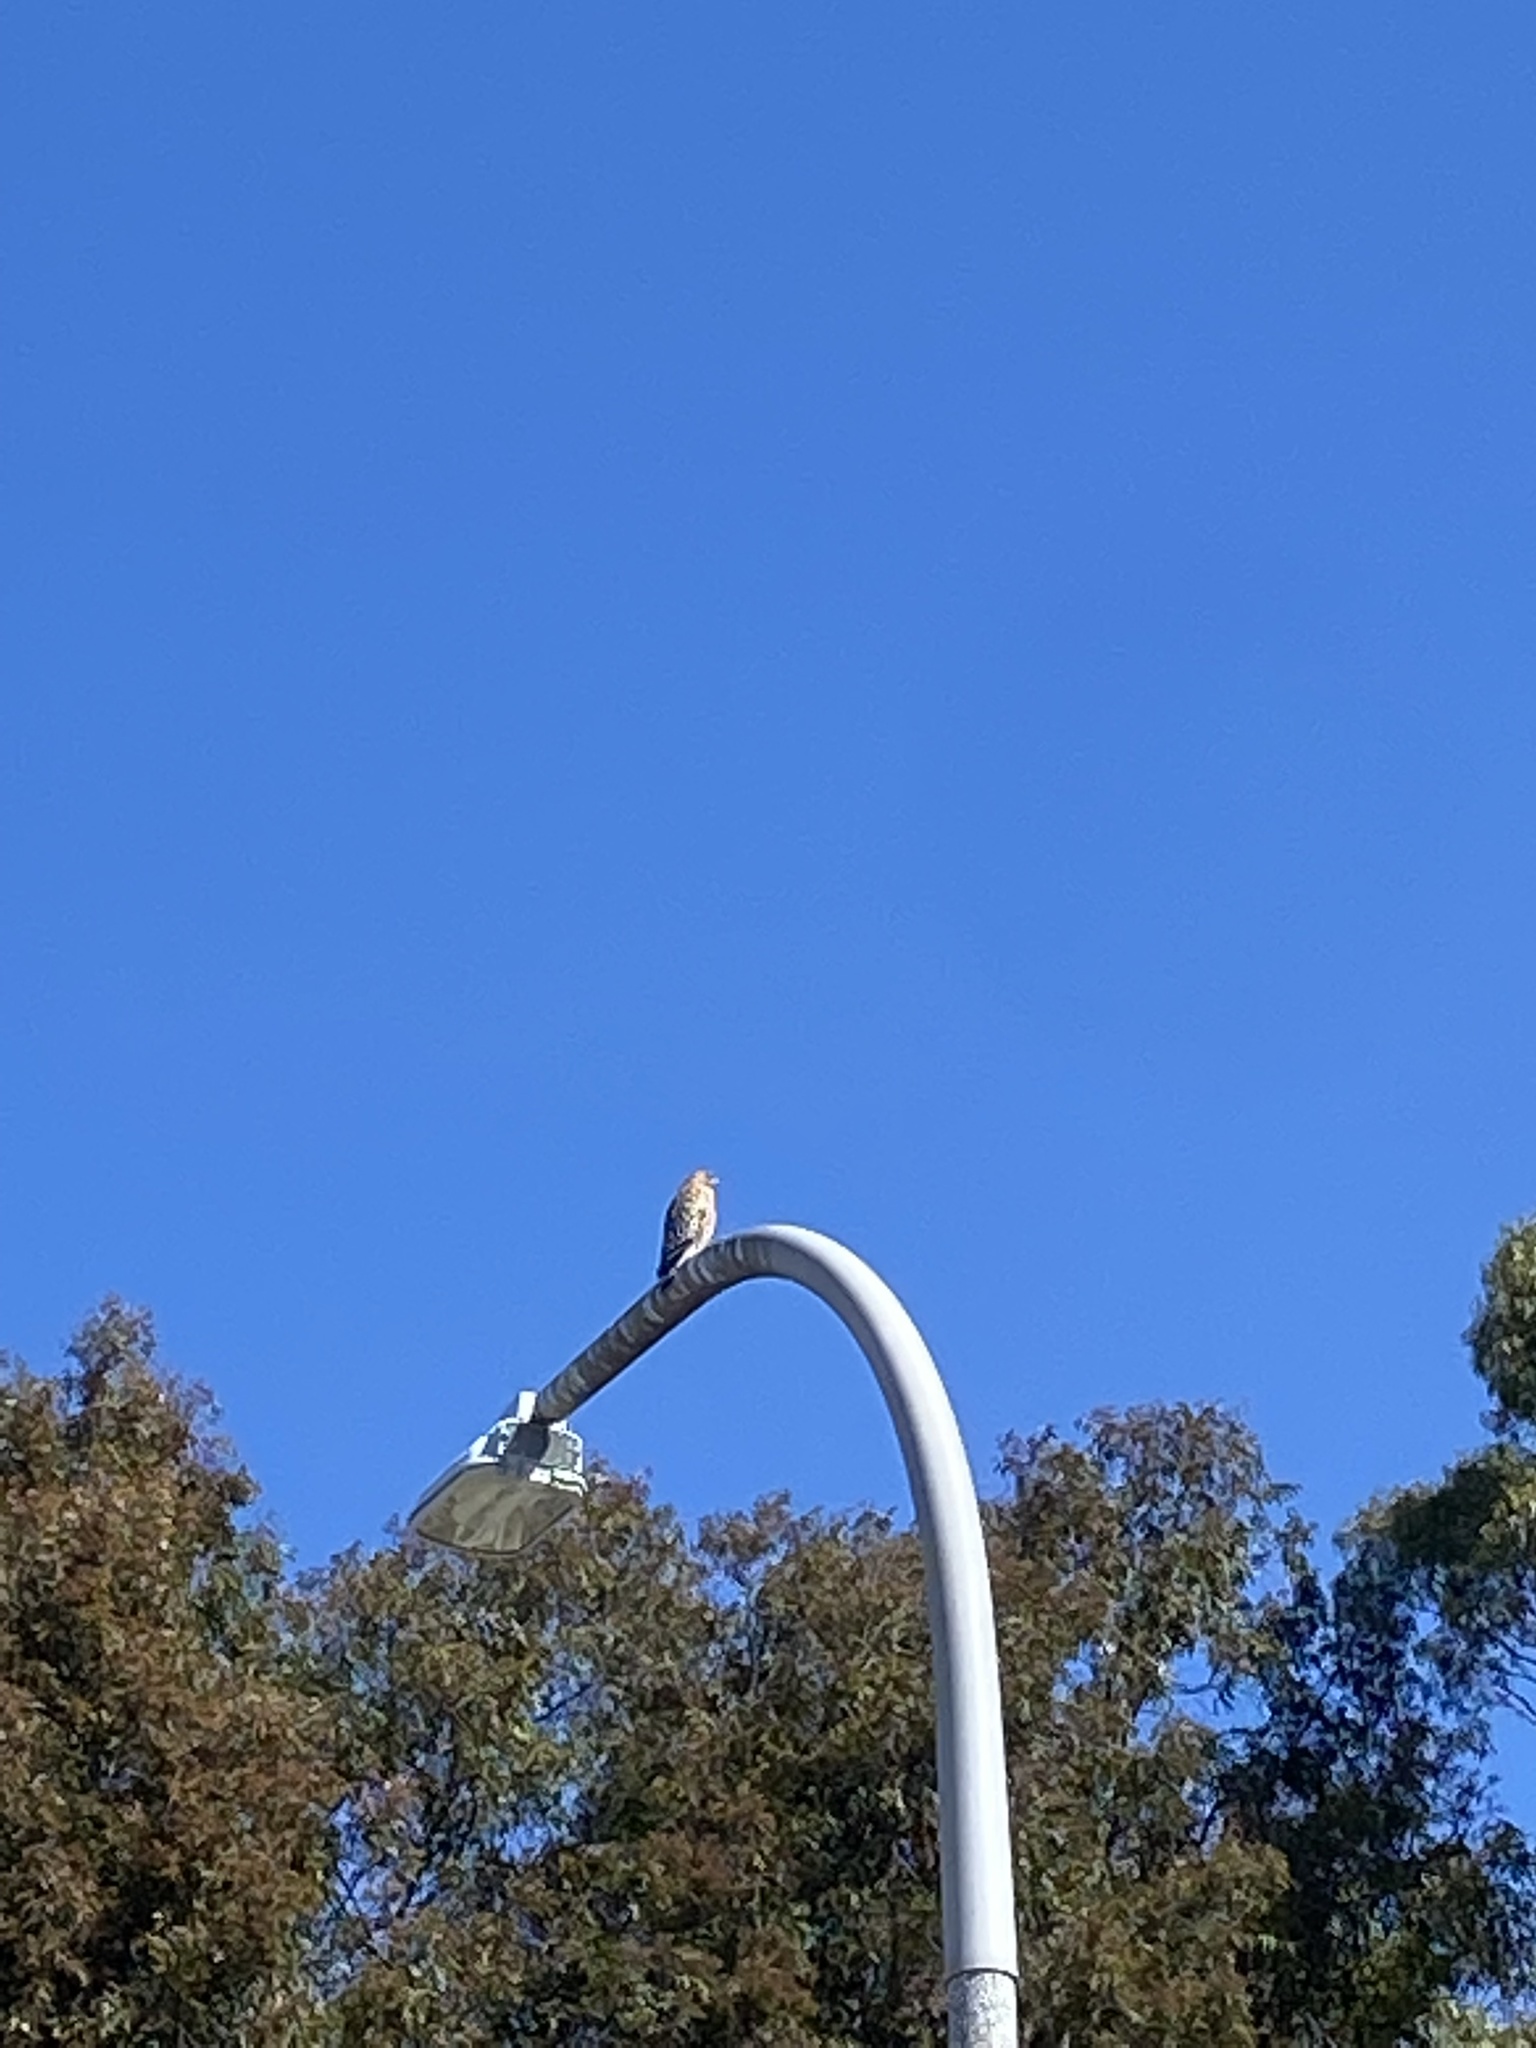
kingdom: Animalia
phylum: Chordata
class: Aves
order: Accipitriformes
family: Accipitridae
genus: Buteo
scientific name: Buteo lineatus
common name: Red-shouldered hawk
